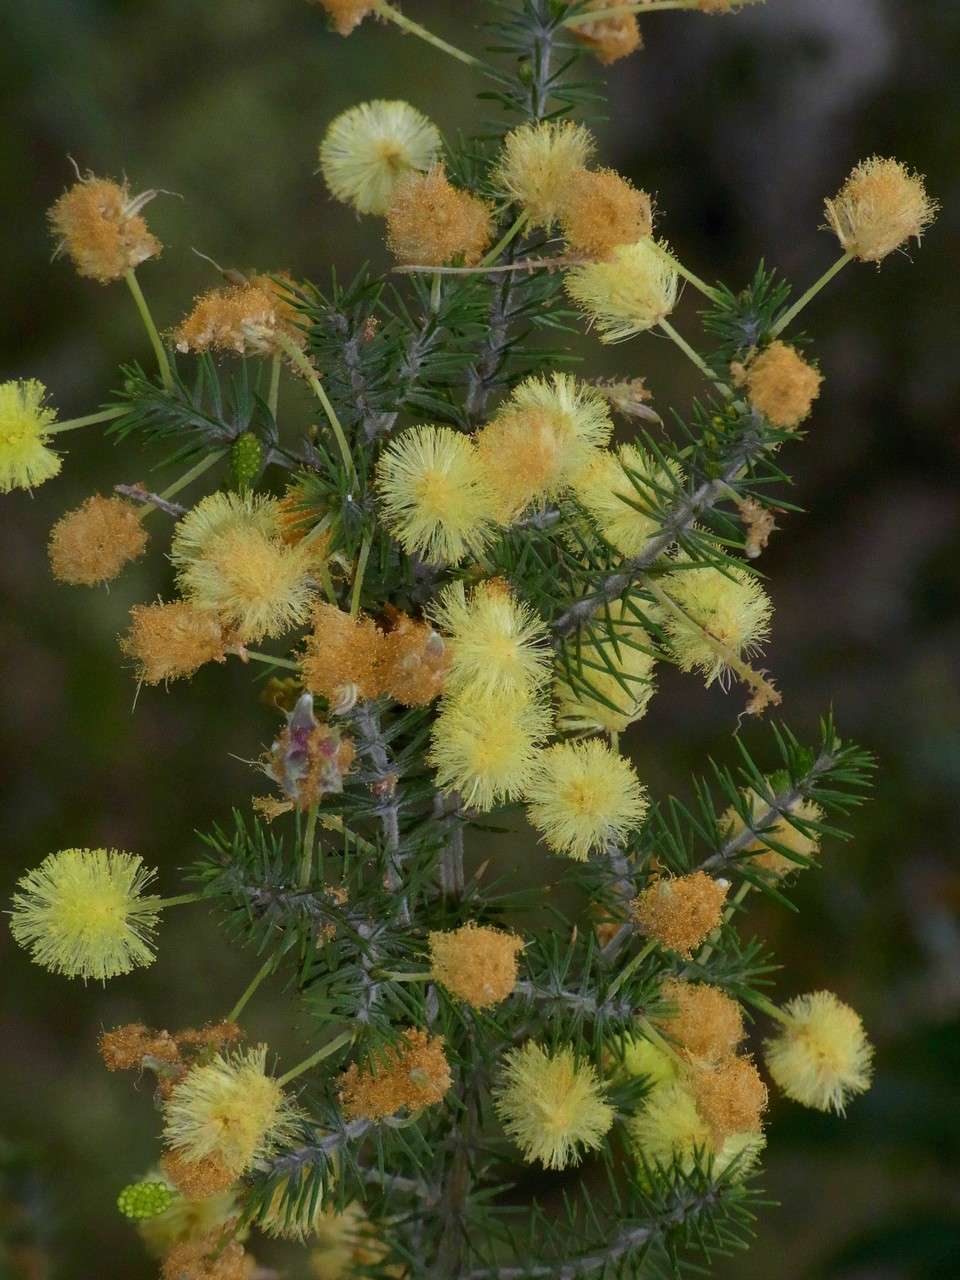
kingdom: Plantae
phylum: Tracheophyta
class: Magnoliopsida
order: Fabales
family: Fabaceae
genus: Acacia
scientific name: Acacia verticillata
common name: Prickly moses
